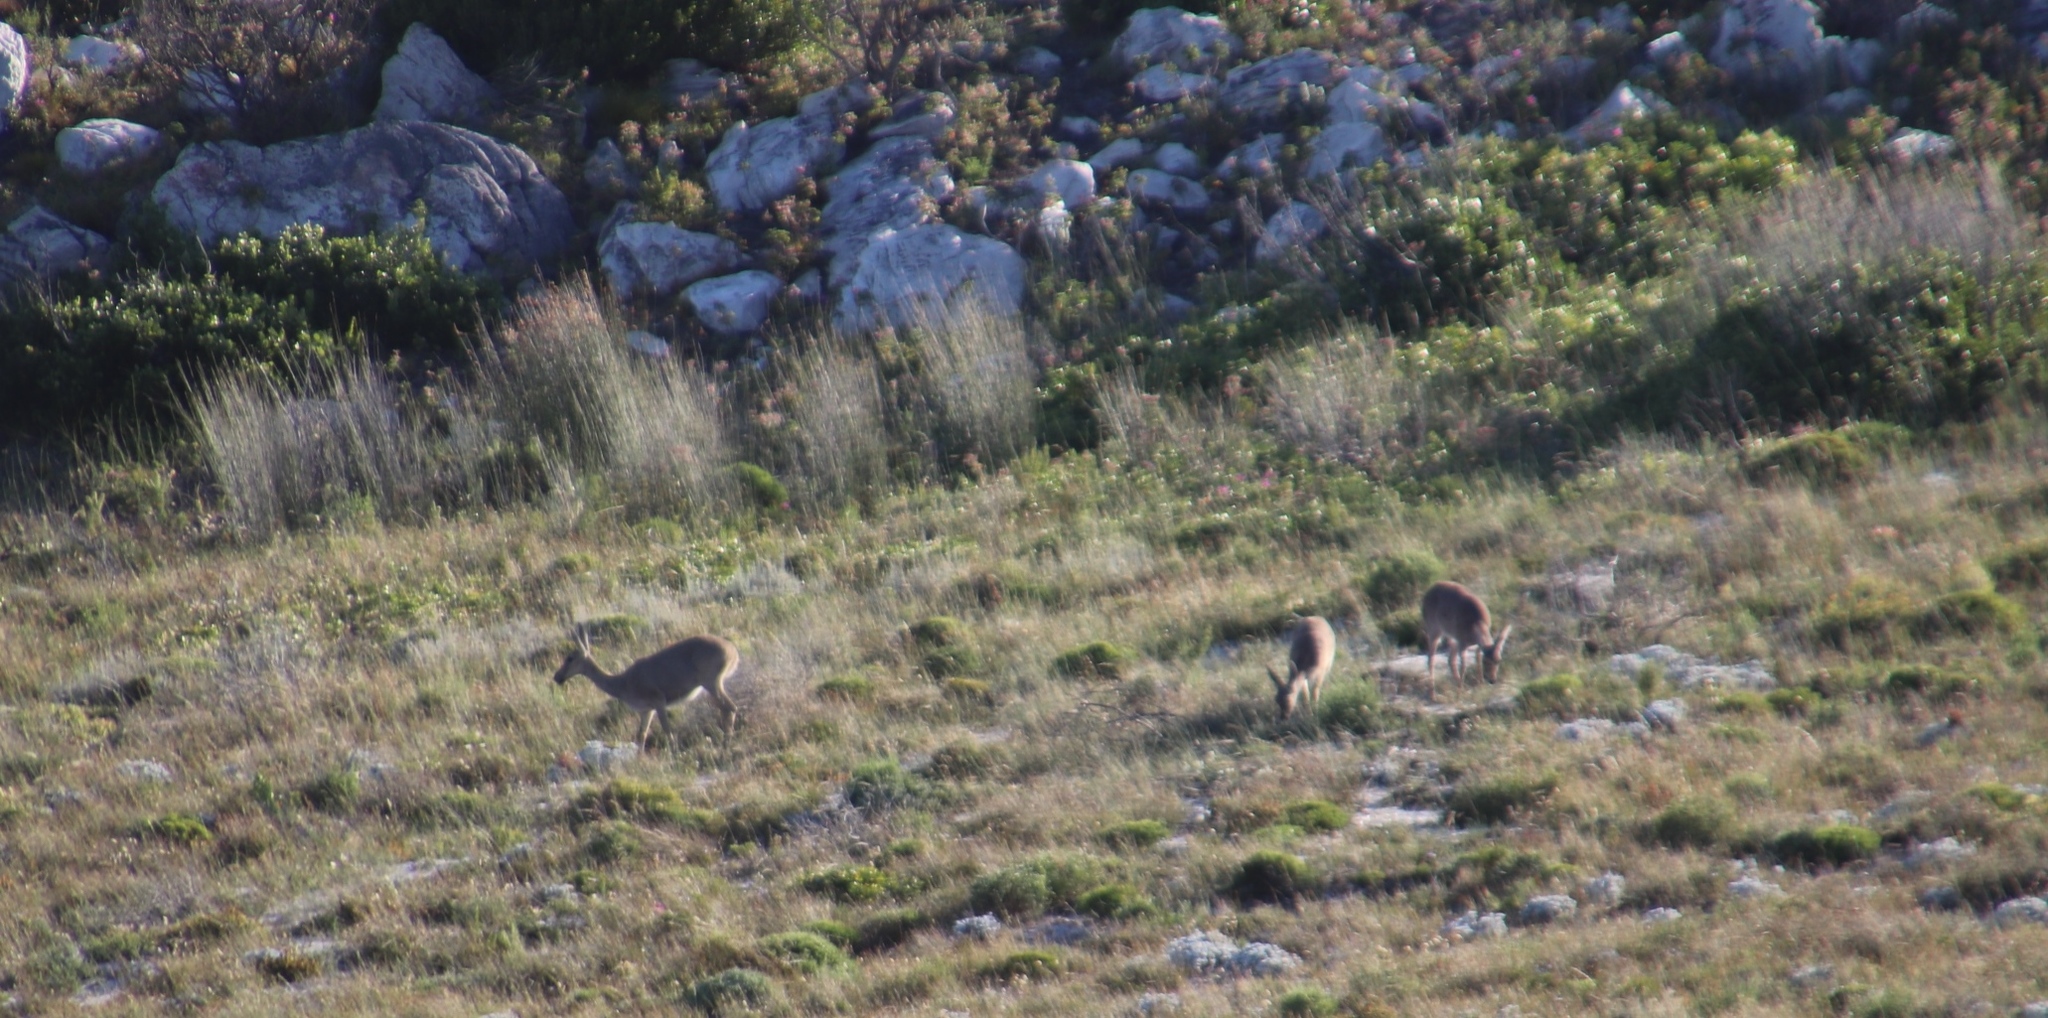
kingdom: Animalia
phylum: Chordata
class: Mammalia
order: Artiodactyla
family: Bovidae
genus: Pelea
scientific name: Pelea capreolus
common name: Common rhebok
